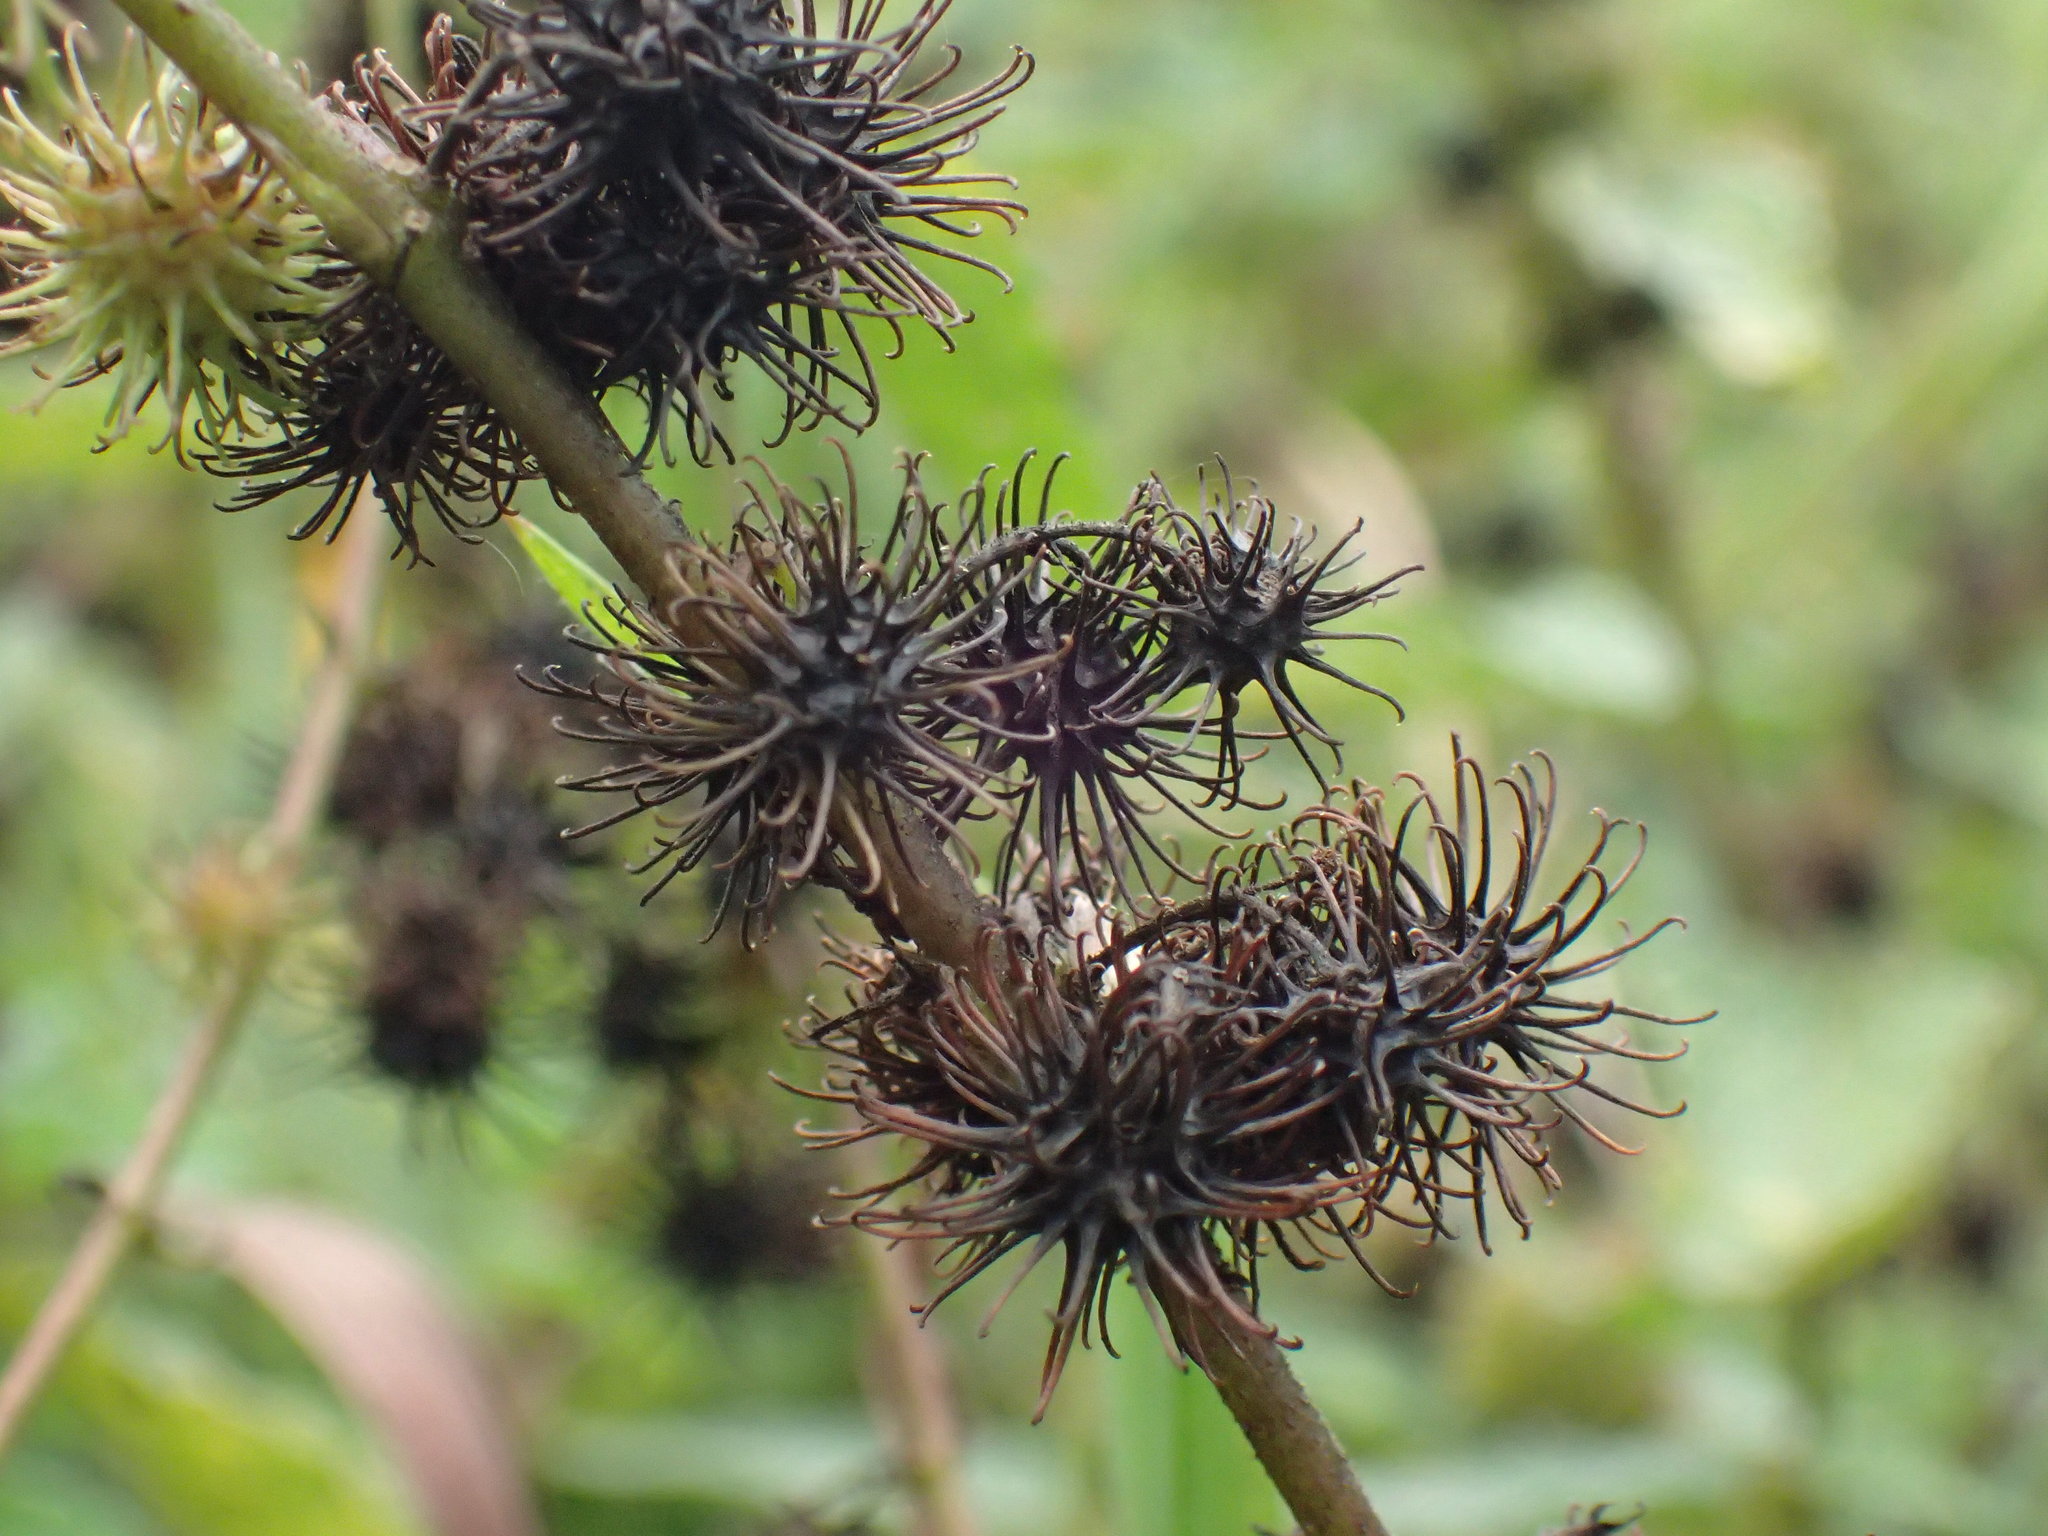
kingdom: Plantae
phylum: Tracheophyta
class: Magnoliopsida
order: Malvales
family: Malvaceae
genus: Triumfetta
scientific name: Triumfetta pilosa
